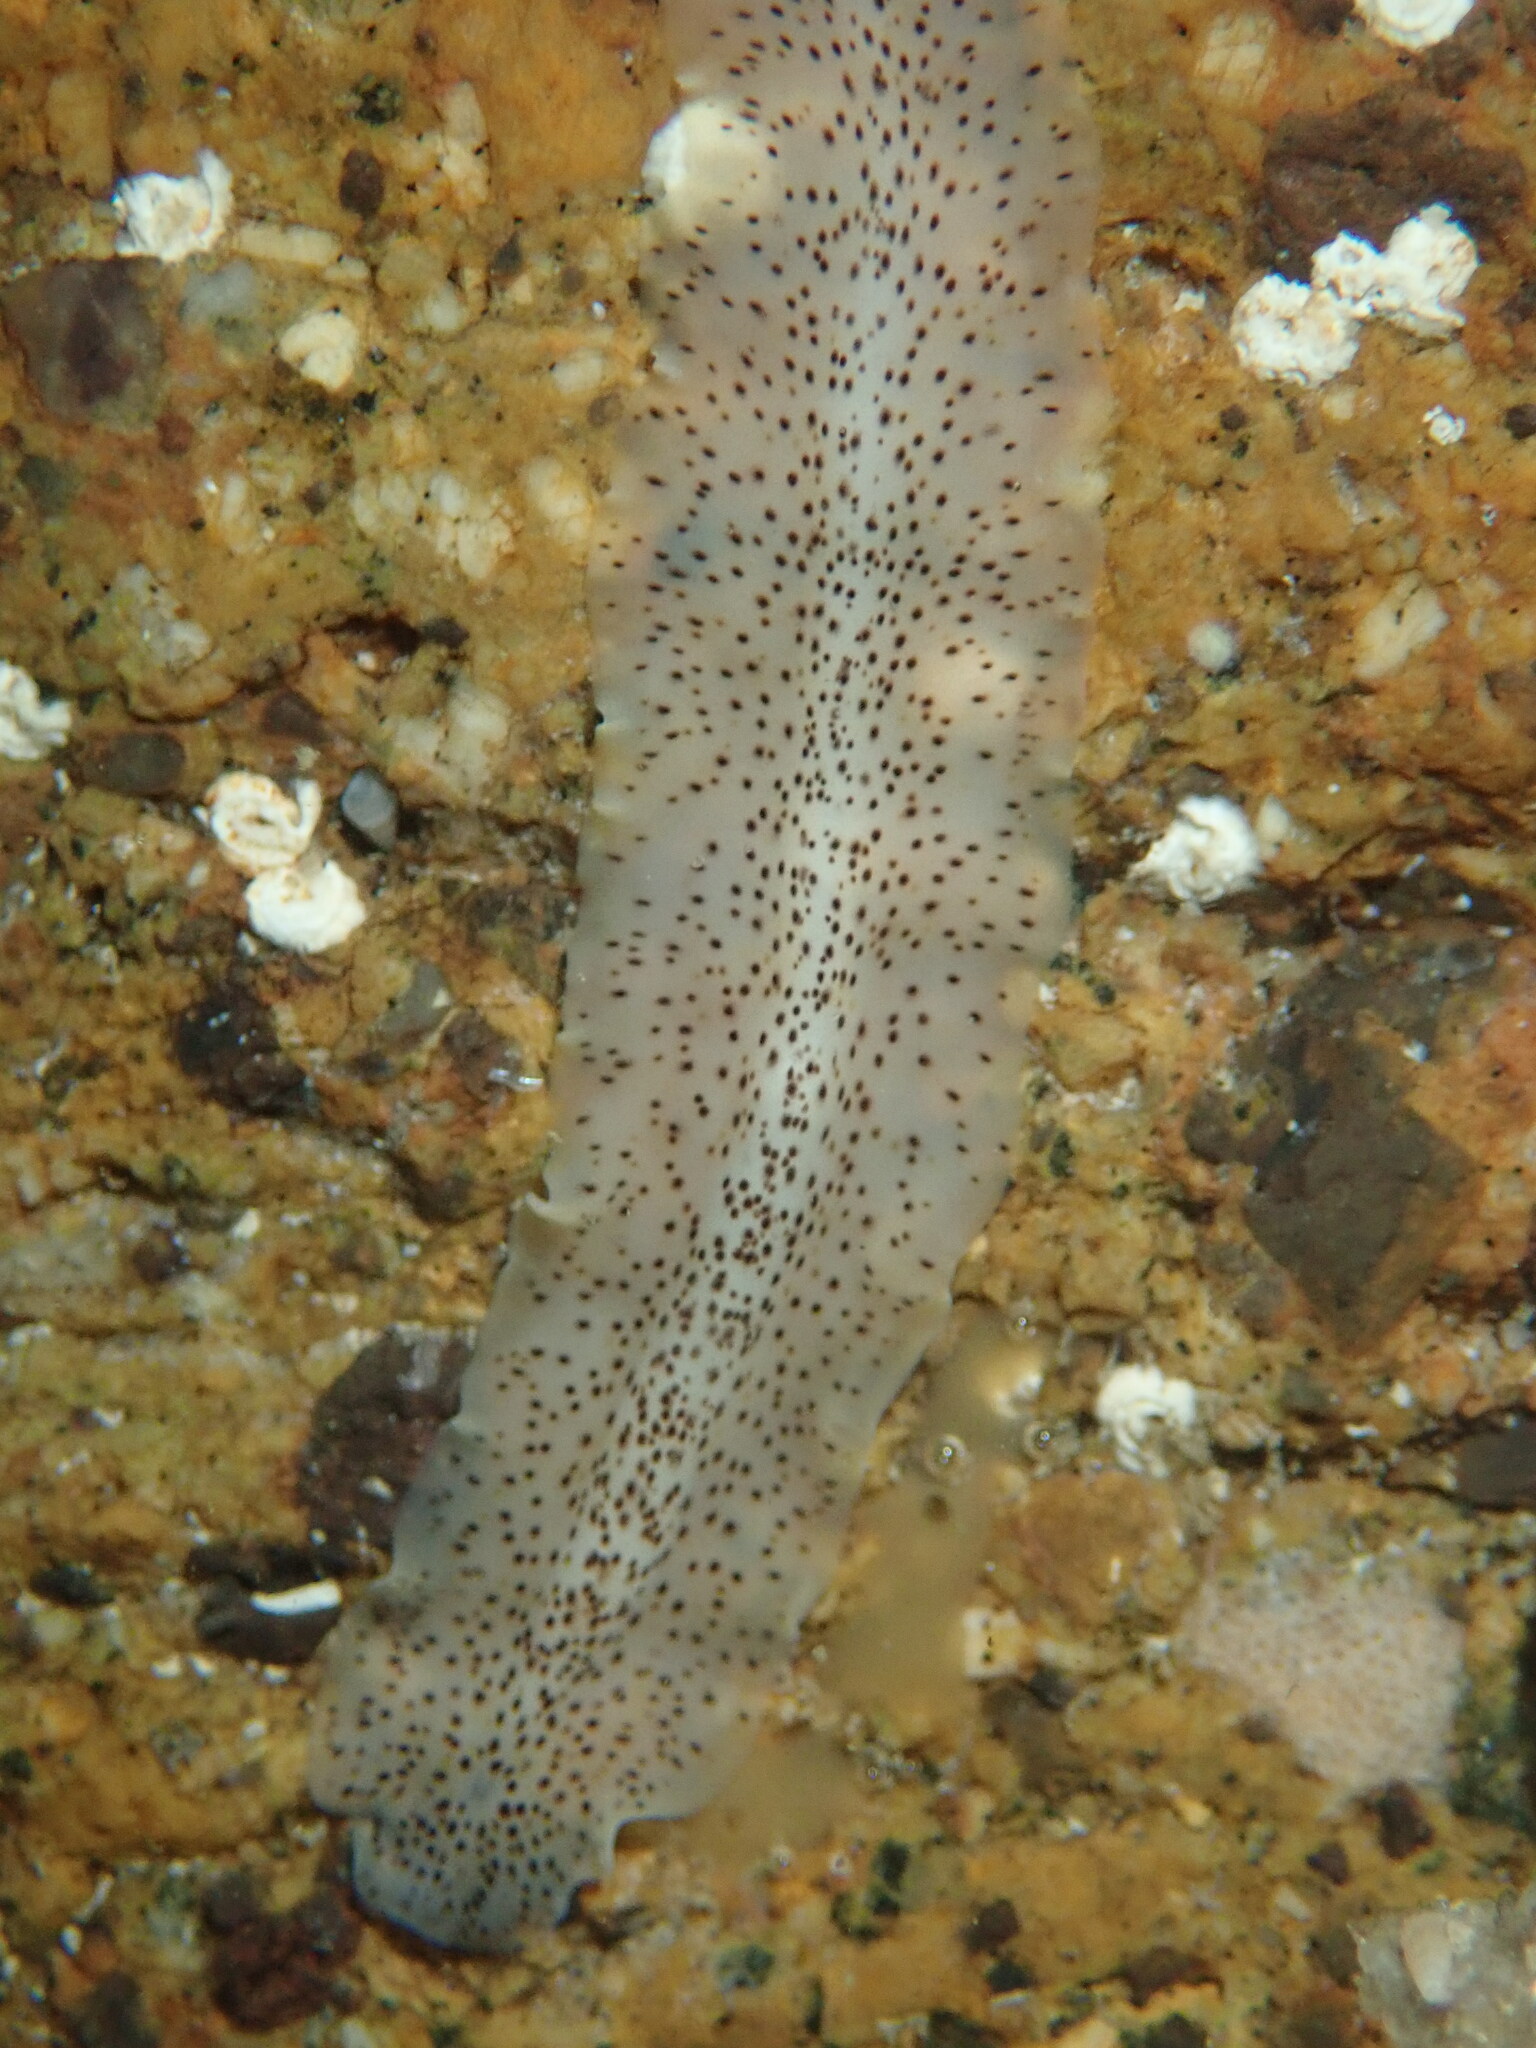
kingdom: Animalia
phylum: Platyhelminthes
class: Turbellaria
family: Prosthiostomidae
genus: Enchiridium
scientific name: Enchiridium punctatum
